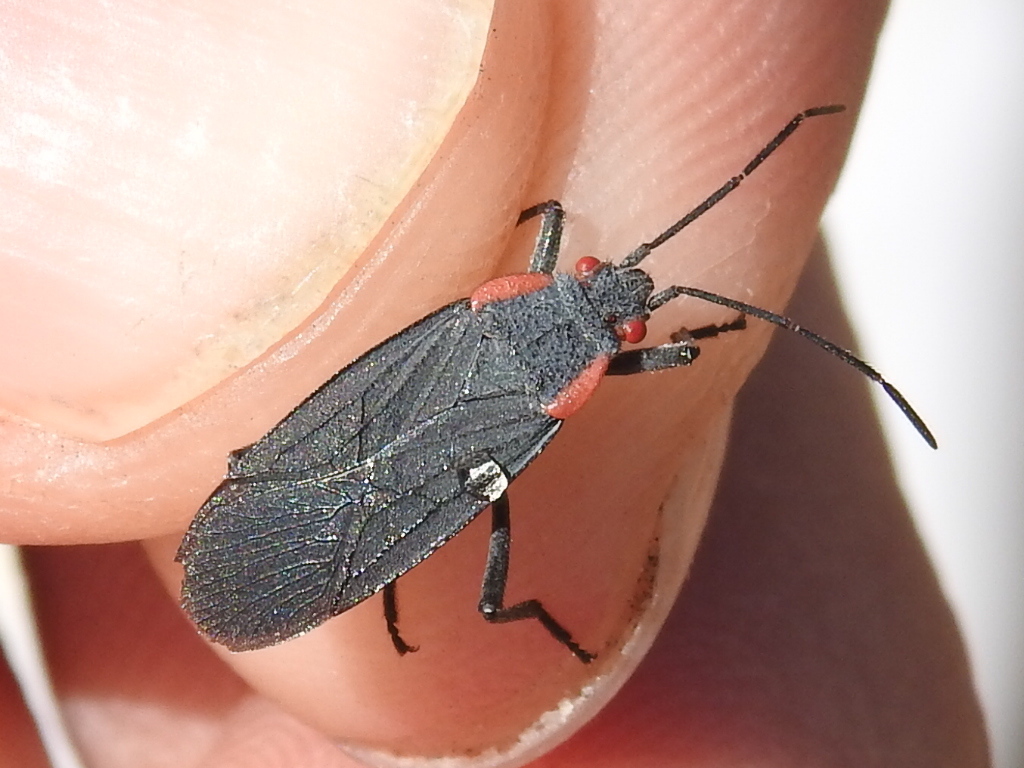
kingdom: Animalia
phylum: Arthropoda
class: Insecta
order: Hemiptera
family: Rhopalidae
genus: Jadera
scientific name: Jadera haematoloma
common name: Red-shouldered bug
